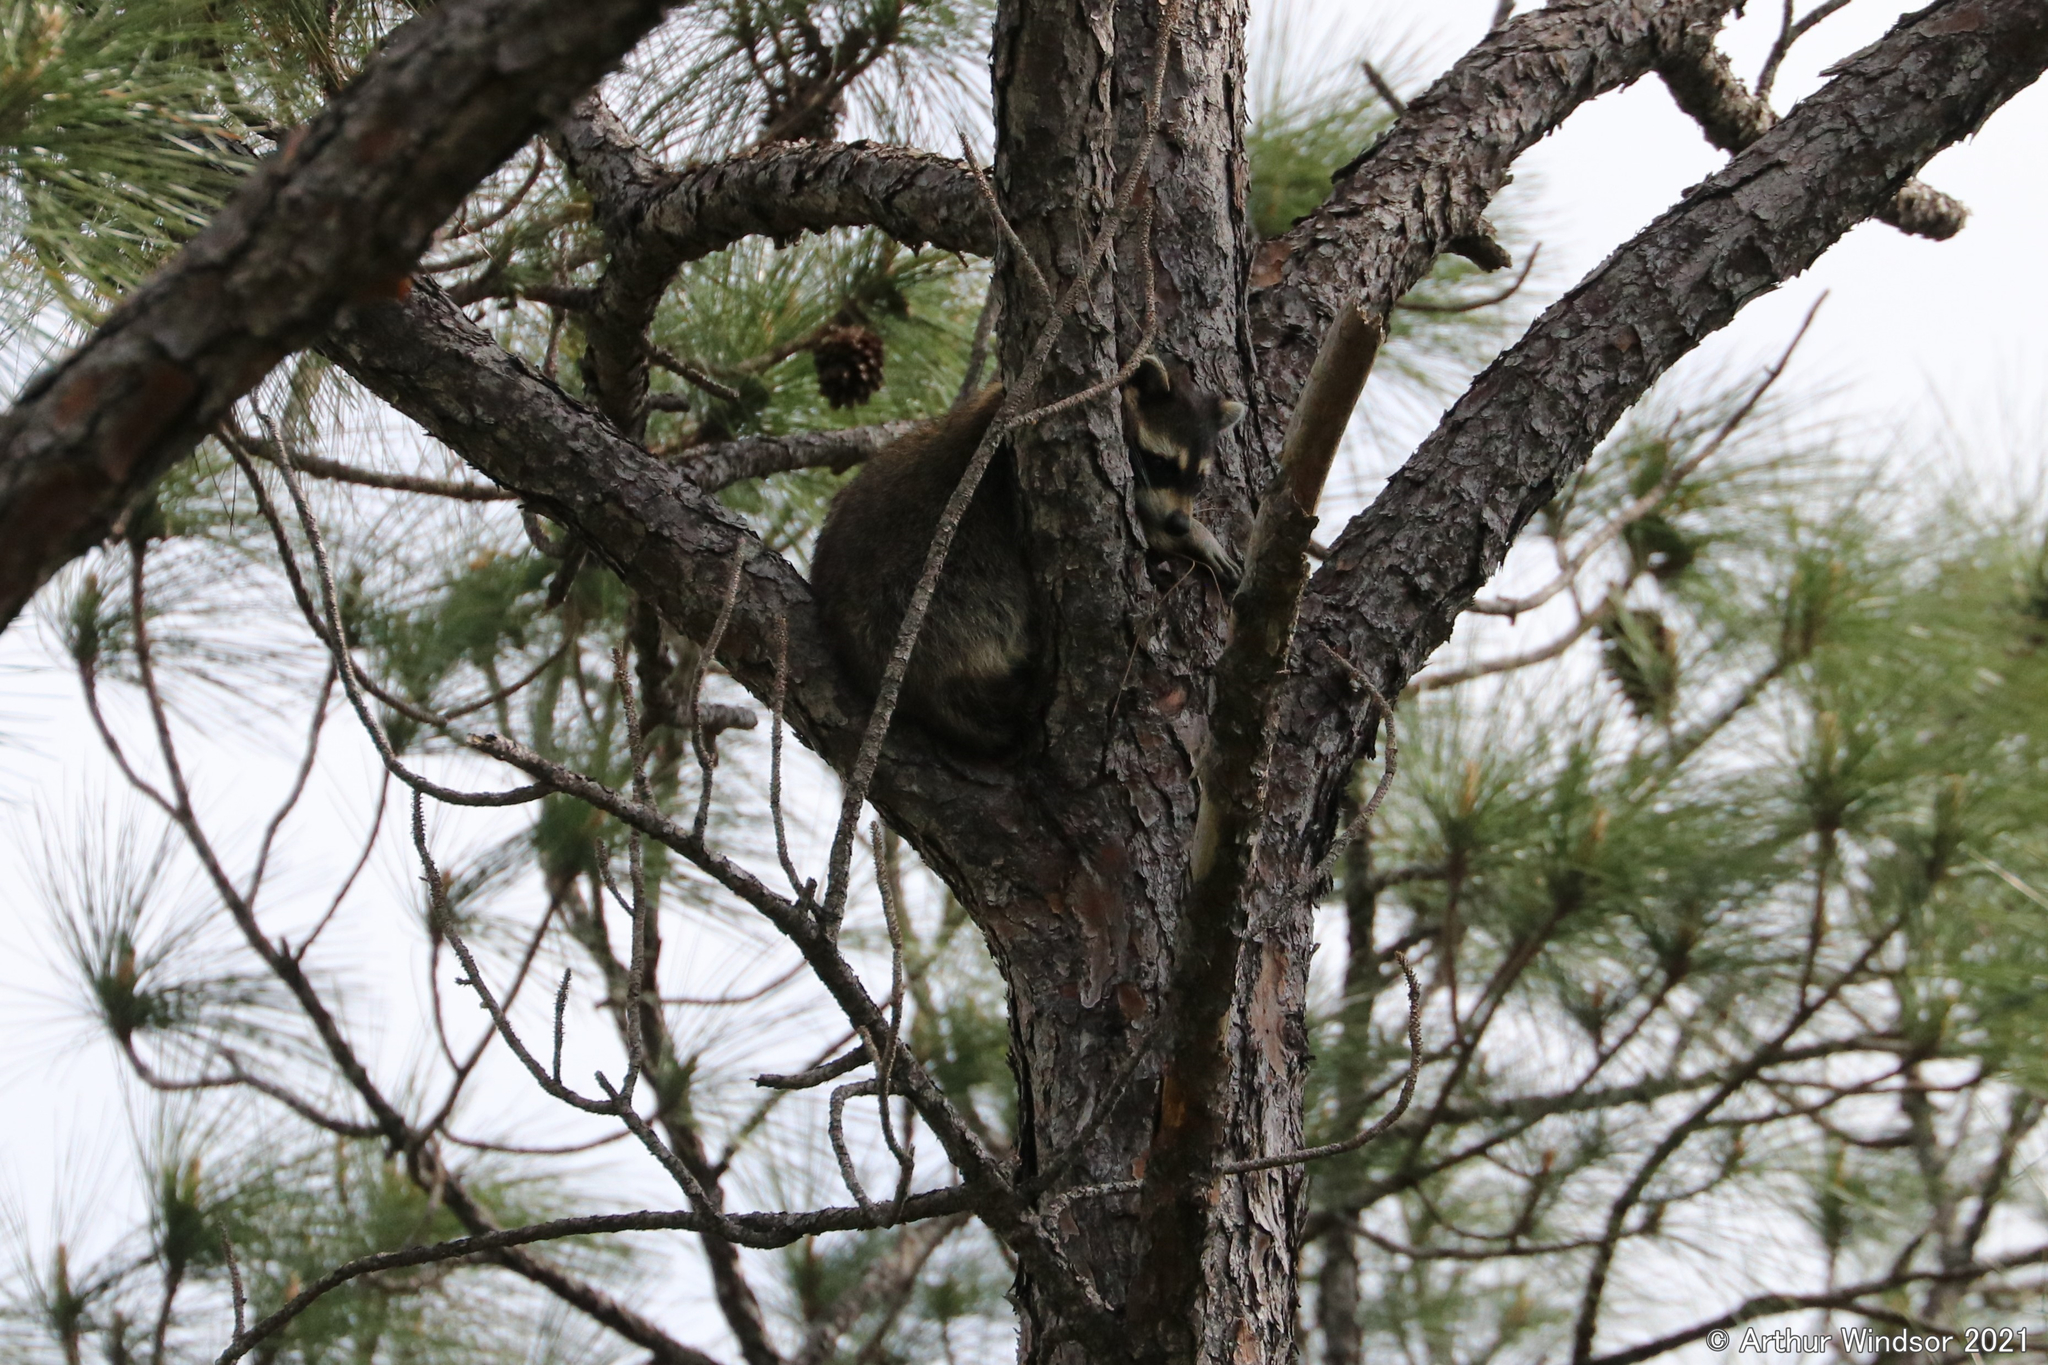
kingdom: Animalia
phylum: Chordata
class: Mammalia
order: Carnivora
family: Procyonidae
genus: Procyon
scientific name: Procyon lotor
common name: Raccoon
